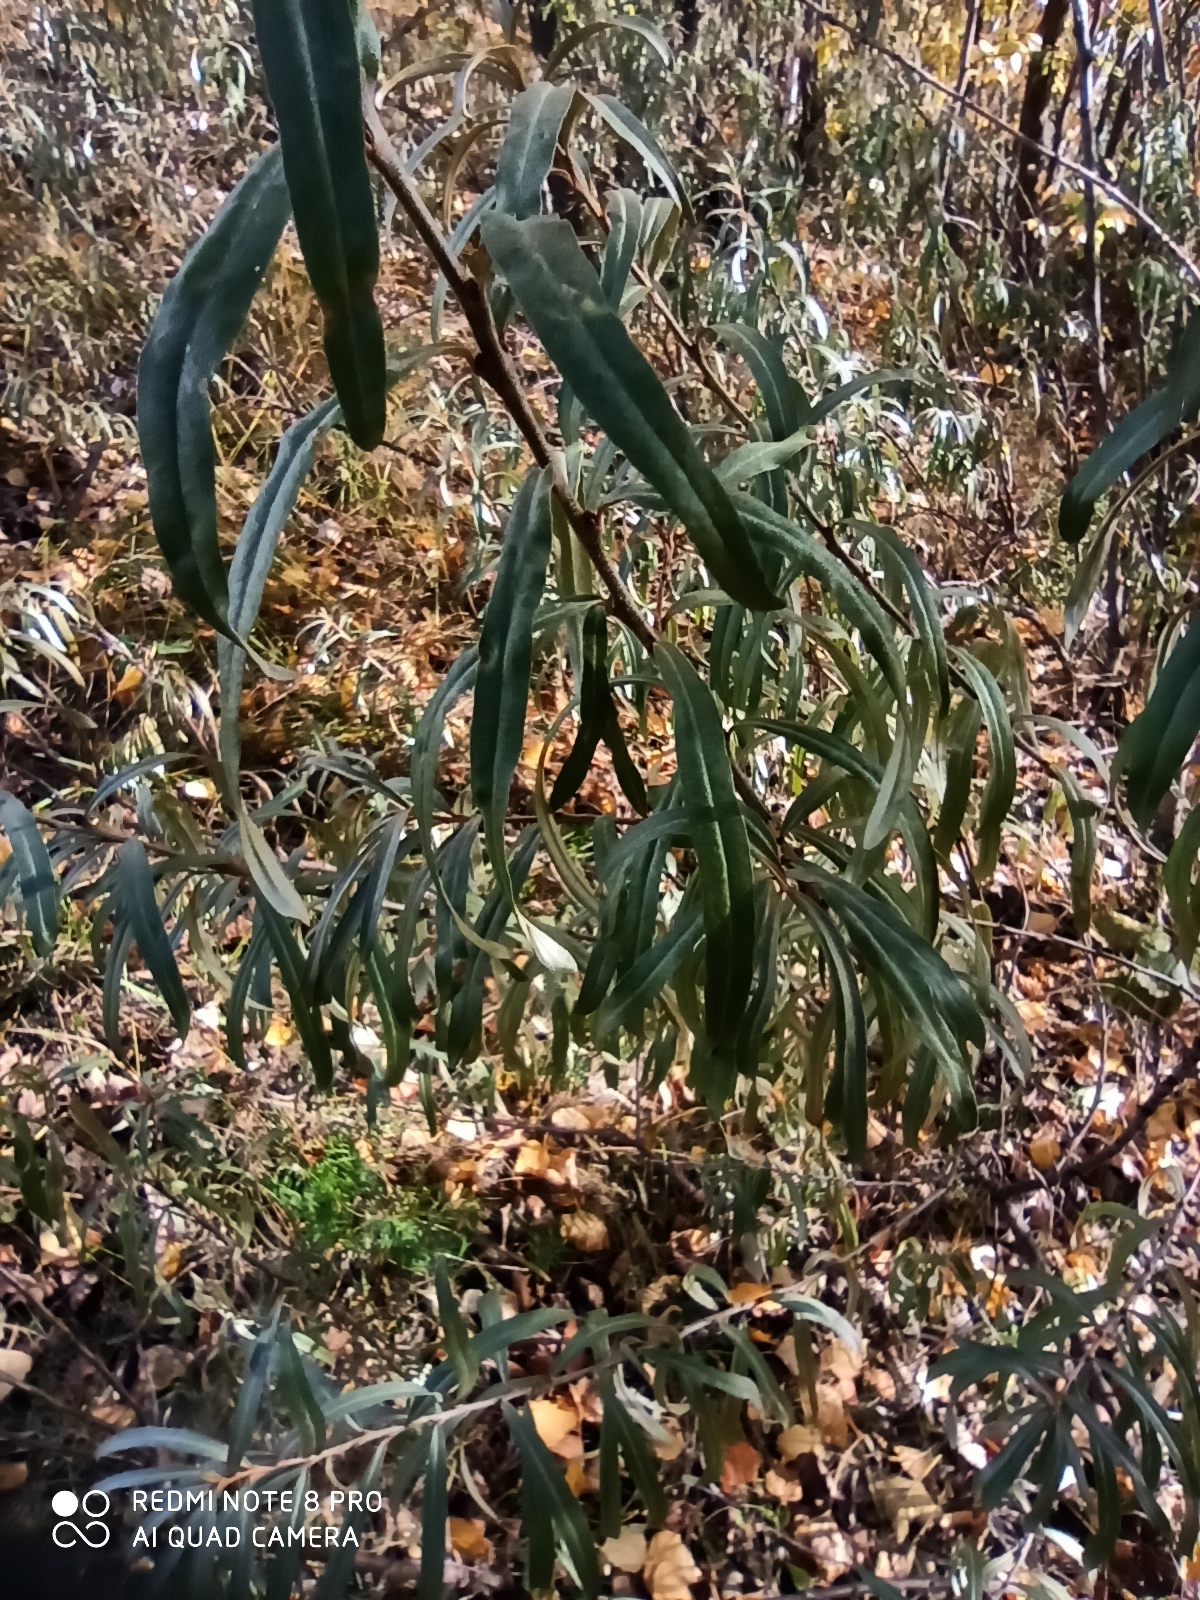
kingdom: Plantae
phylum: Tracheophyta
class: Magnoliopsida
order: Rosales
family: Elaeagnaceae
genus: Hippophae
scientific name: Hippophae rhamnoides
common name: Sea-buckthorn
